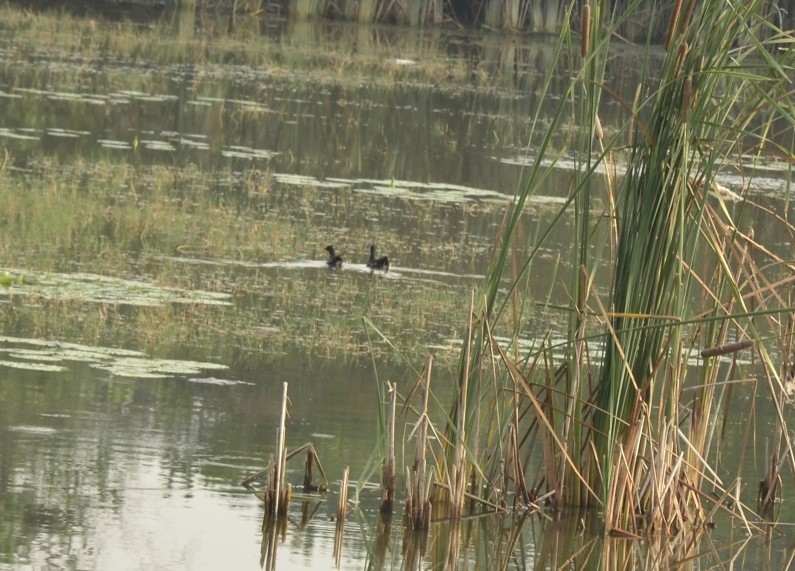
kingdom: Animalia
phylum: Chordata
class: Aves
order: Gruiformes
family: Rallidae
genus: Gallinula
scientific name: Gallinula chloropus
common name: Common moorhen
